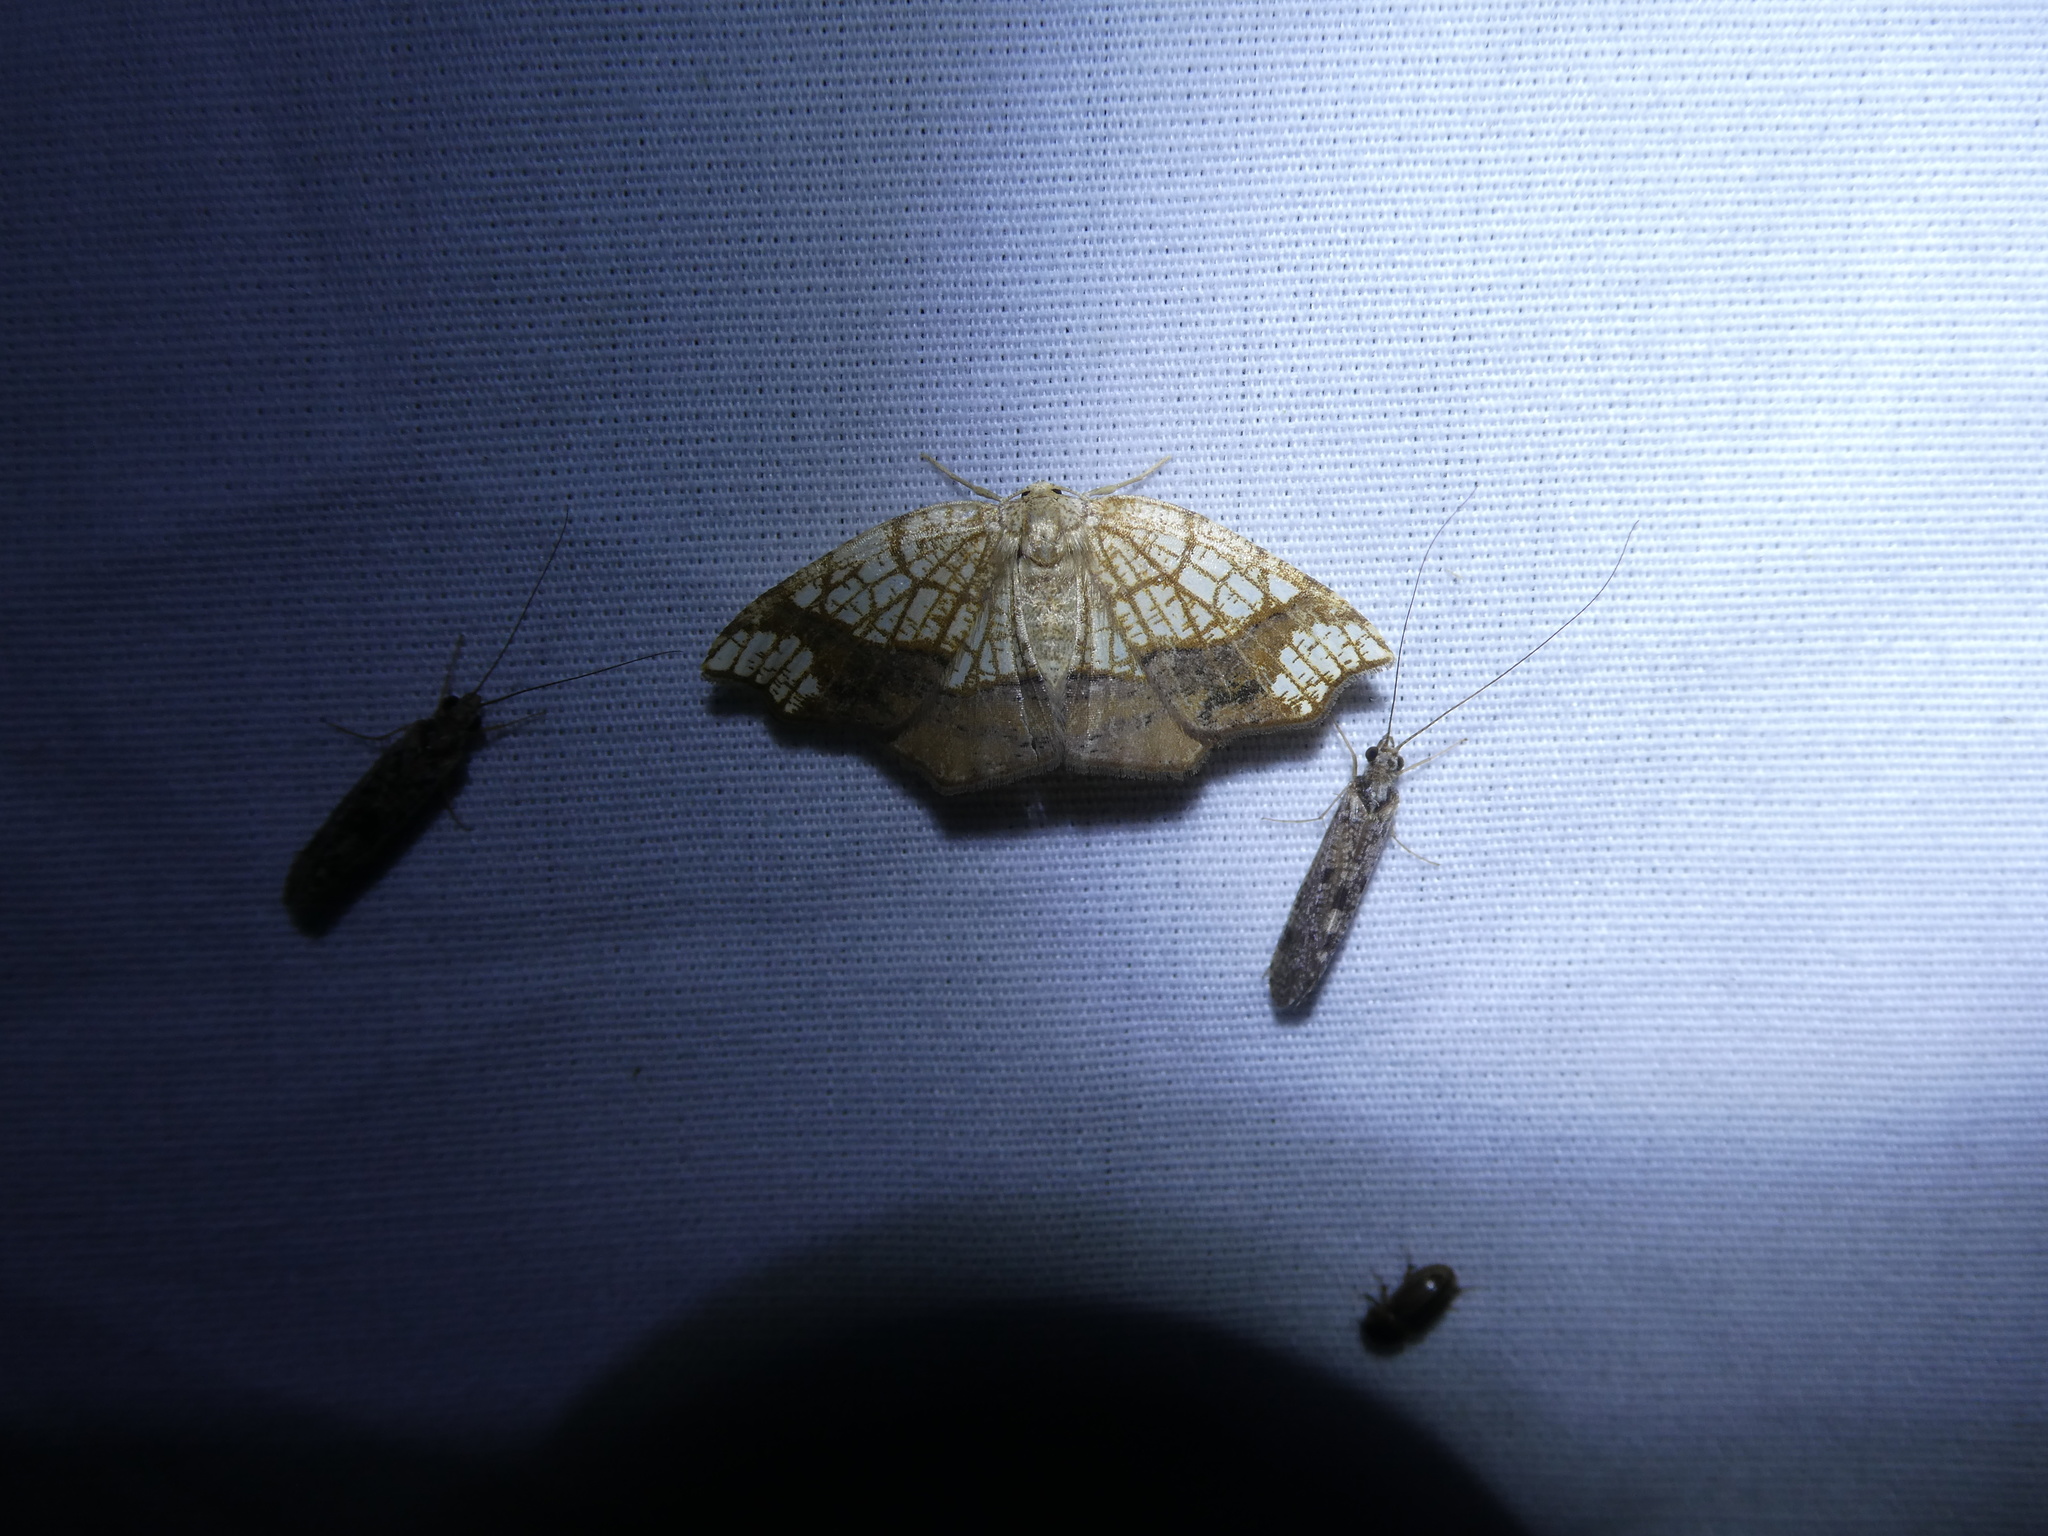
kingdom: Animalia
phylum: Arthropoda
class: Insecta
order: Lepidoptera
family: Geometridae
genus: Nematocampa
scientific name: Nematocampa resistaria
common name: Horned spanworm moth
